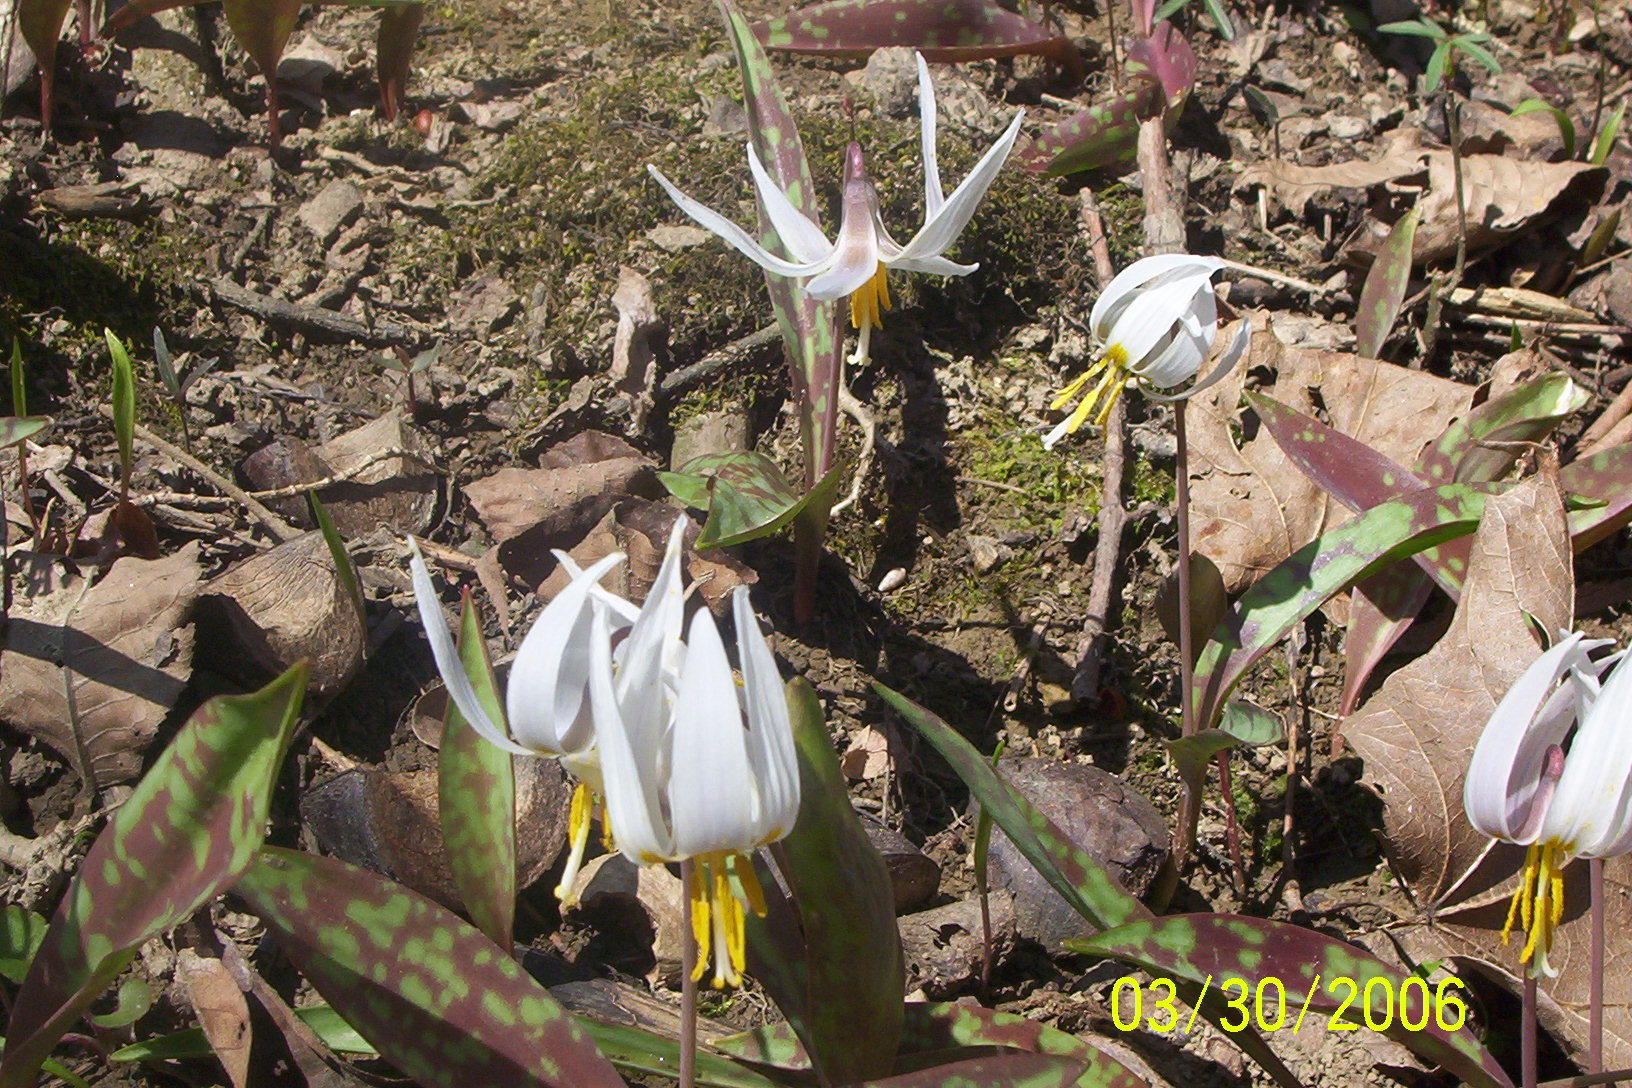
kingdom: Plantae
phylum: Tracheophyta
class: Liliopsida
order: Liliales
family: Liliaceae
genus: Erythronium
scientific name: Erythronium albidum
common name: White trout-lily
